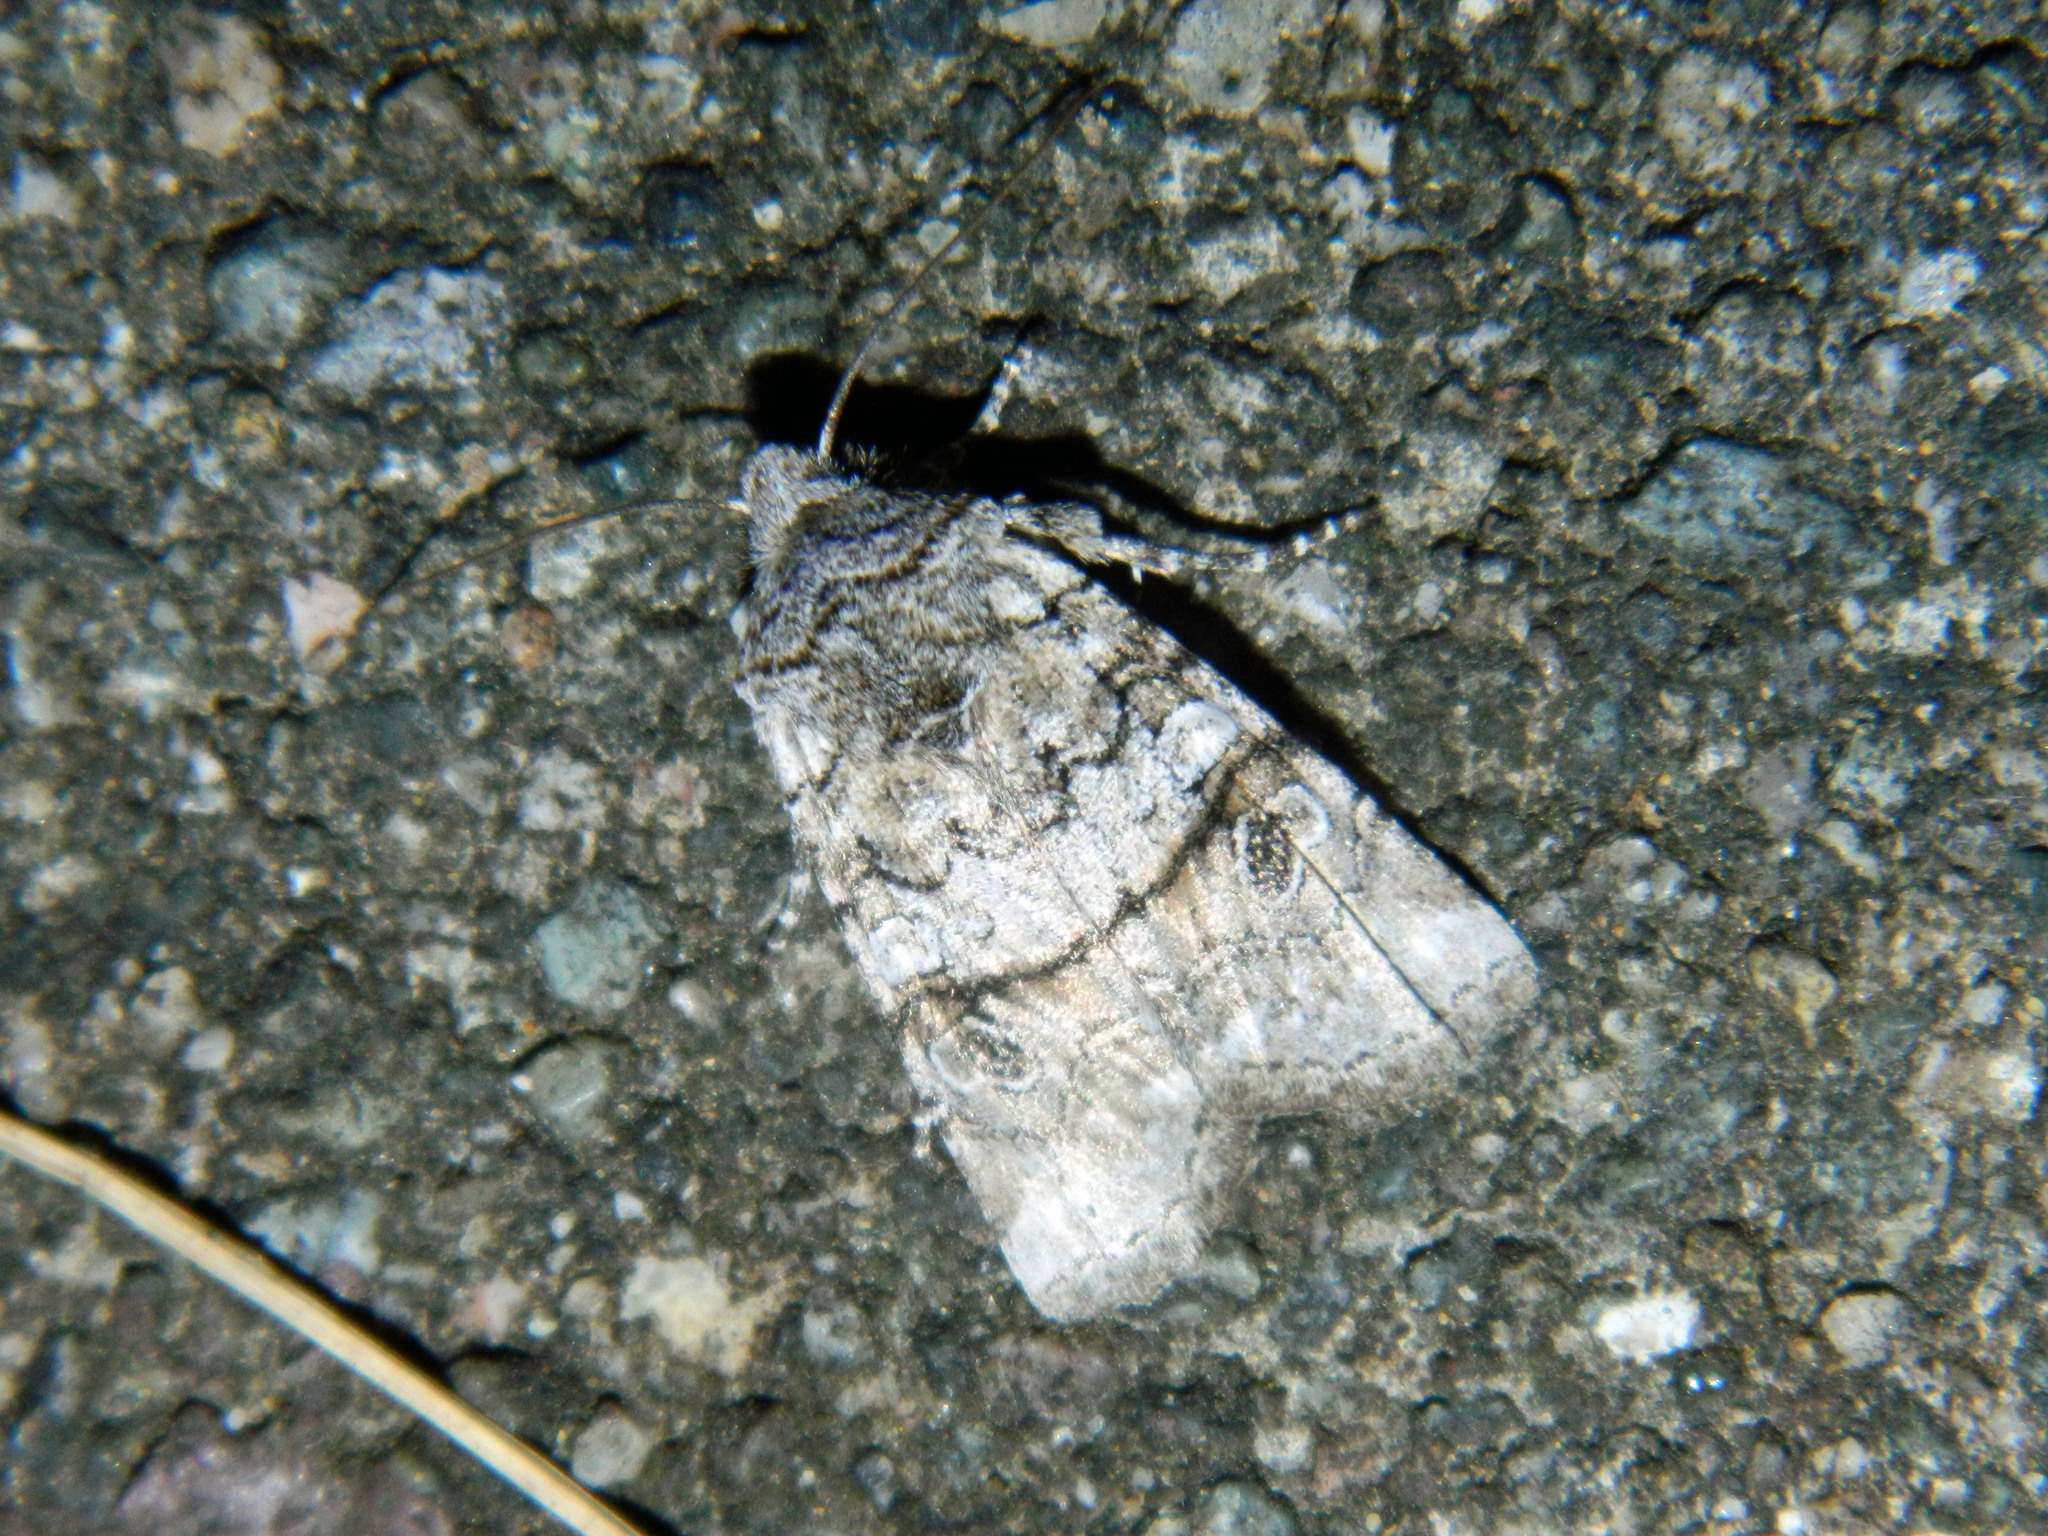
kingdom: Animalia
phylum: Arthropoda
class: Insecta
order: Lepidoptera
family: Noctuidae
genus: Litholomia
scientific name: Litholomia napaea
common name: False pinion moth
